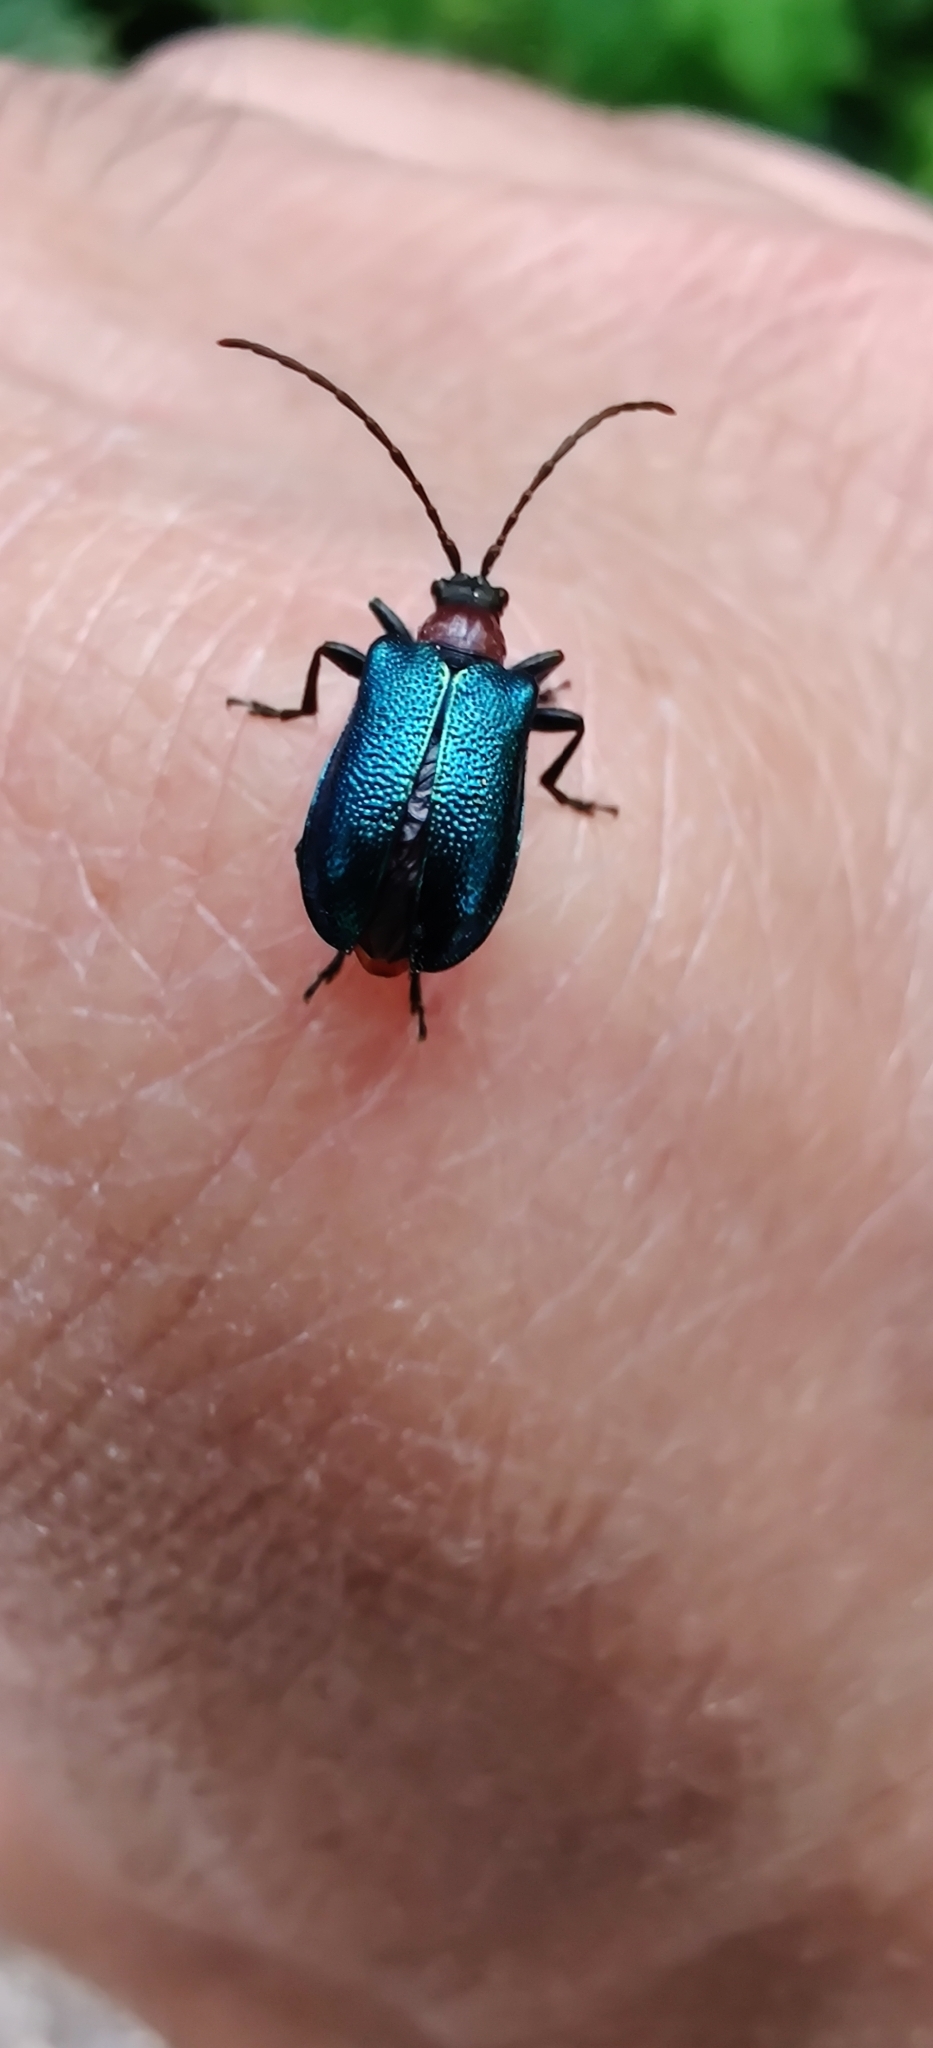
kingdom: Animalia
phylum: Arthropoda
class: Insecta
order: Coleoptera
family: Cerambycidae
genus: Gaurotes
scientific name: Gaurotes virginea
